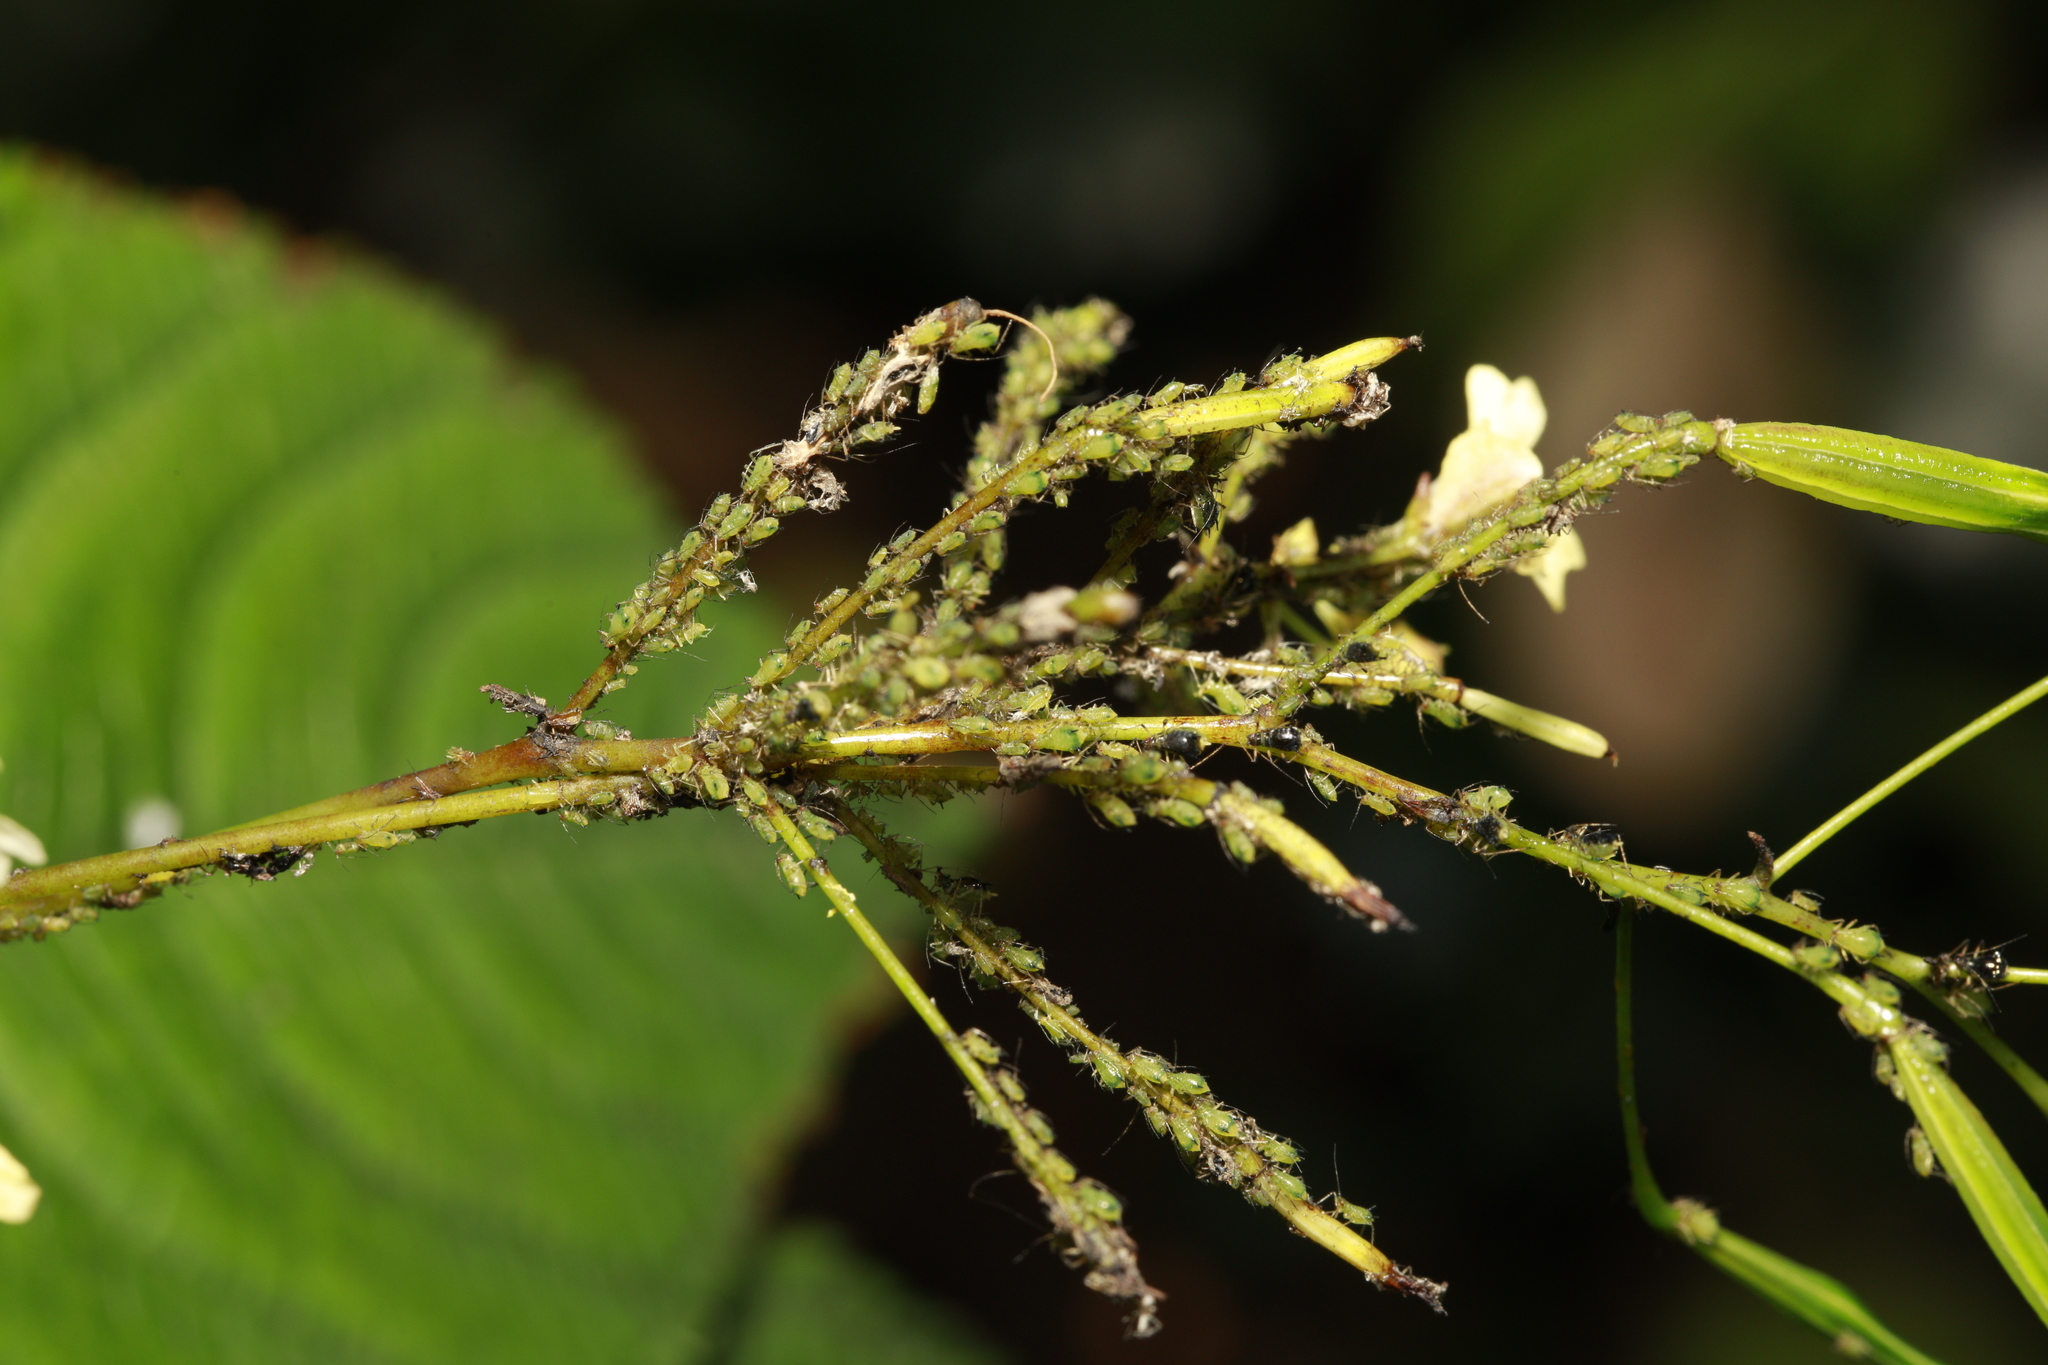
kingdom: Animalia
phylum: Arthropoda
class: Insecta
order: Hemiptera
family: Aphididae
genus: Impatientinum
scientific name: Impatientinum asiaticum
